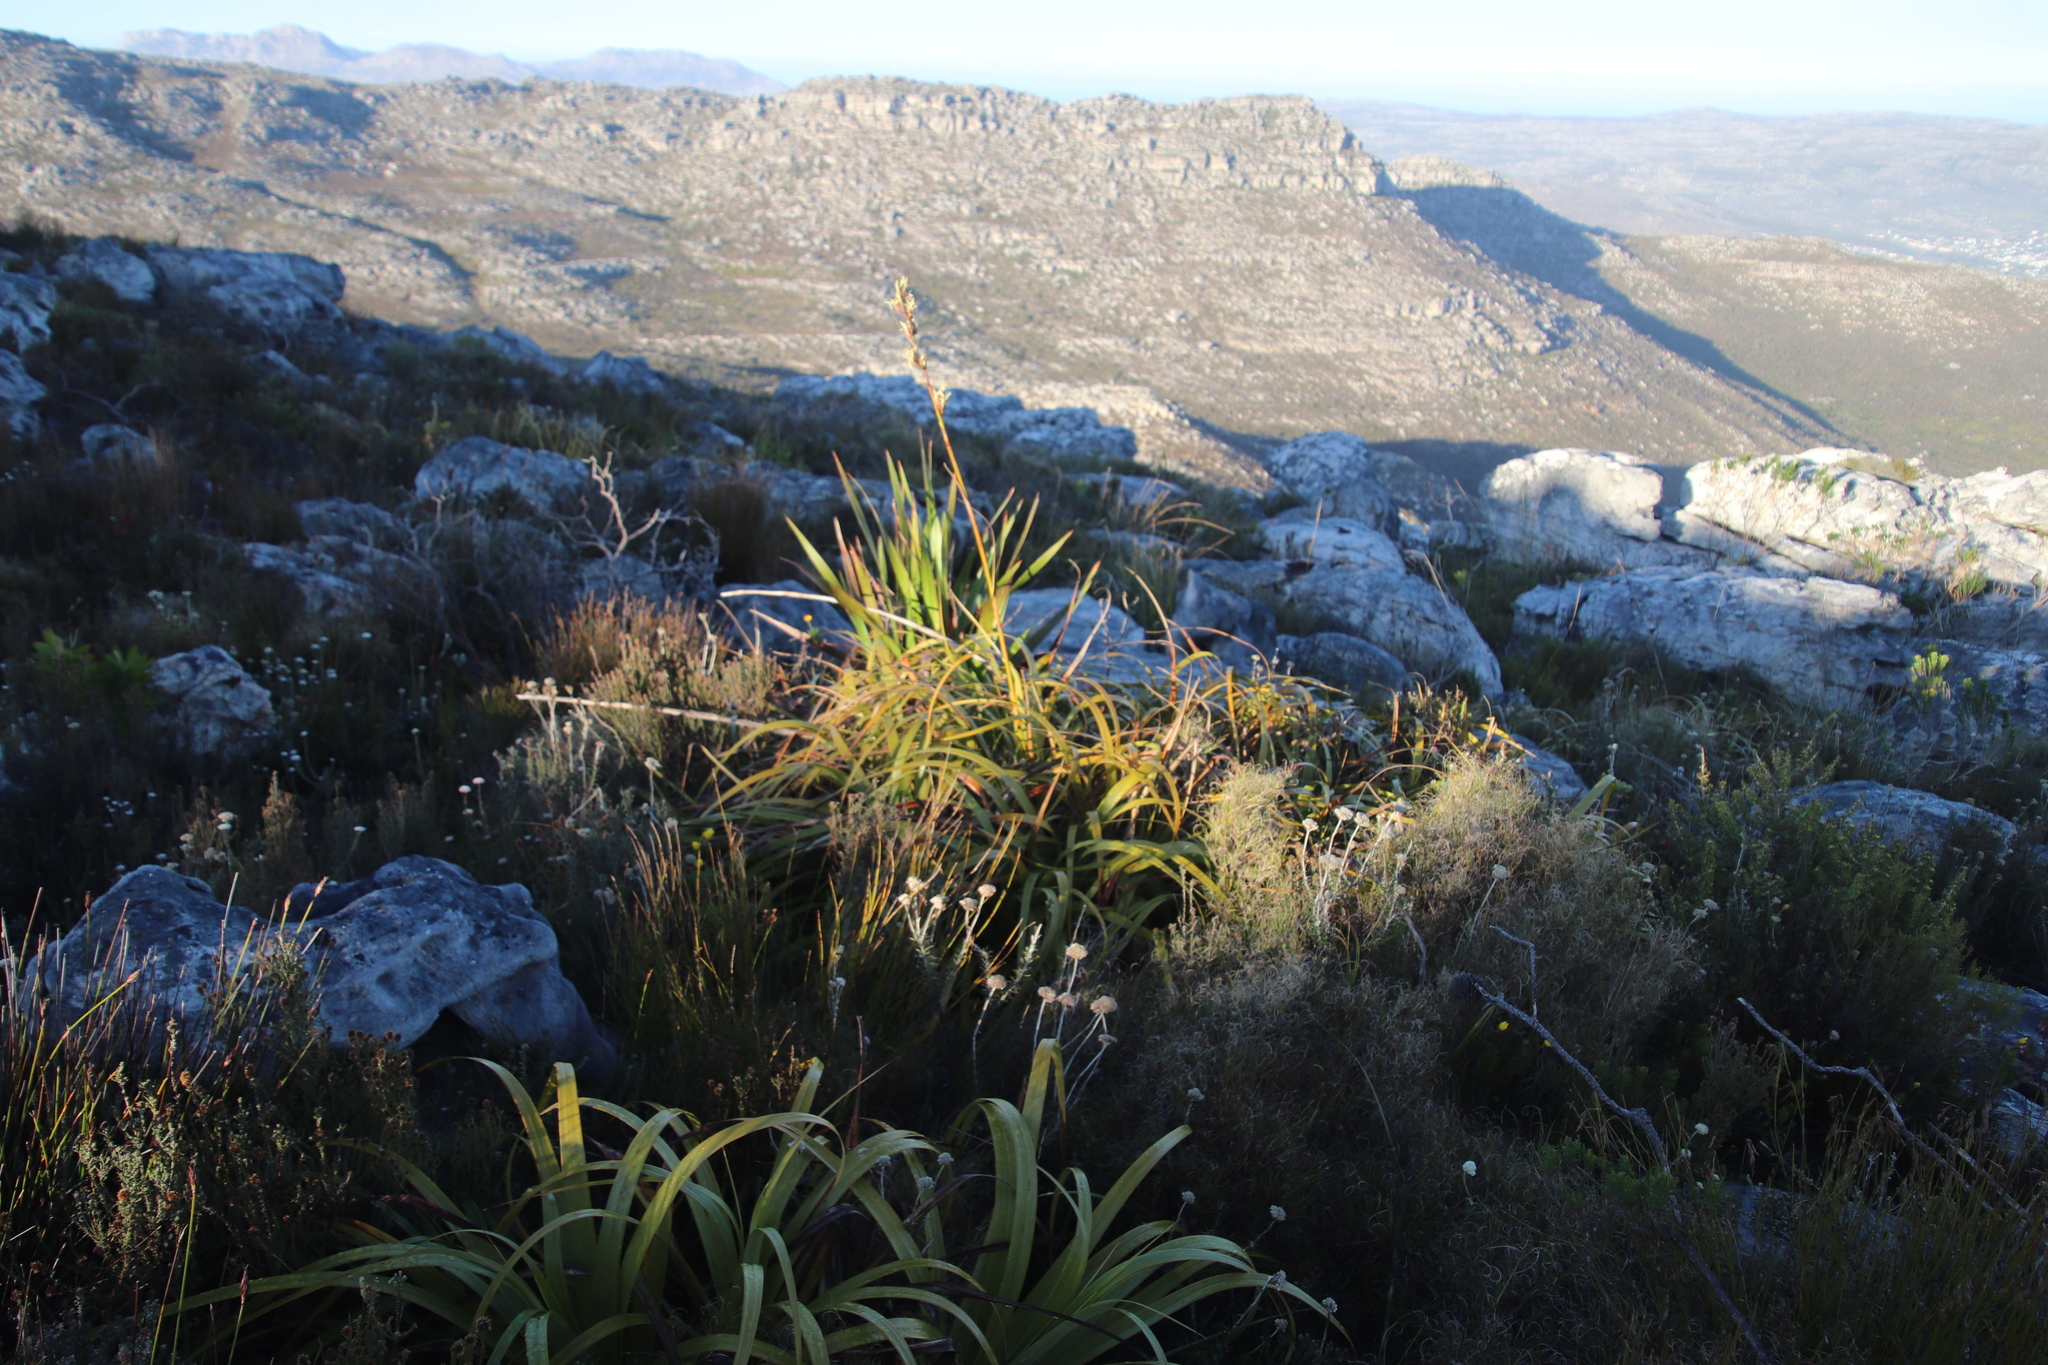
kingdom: Plantae
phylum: Tracheophyta
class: Liliopsida
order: Poales
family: Cyperaceae
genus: Tetraria
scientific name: Tetraria thermalis
